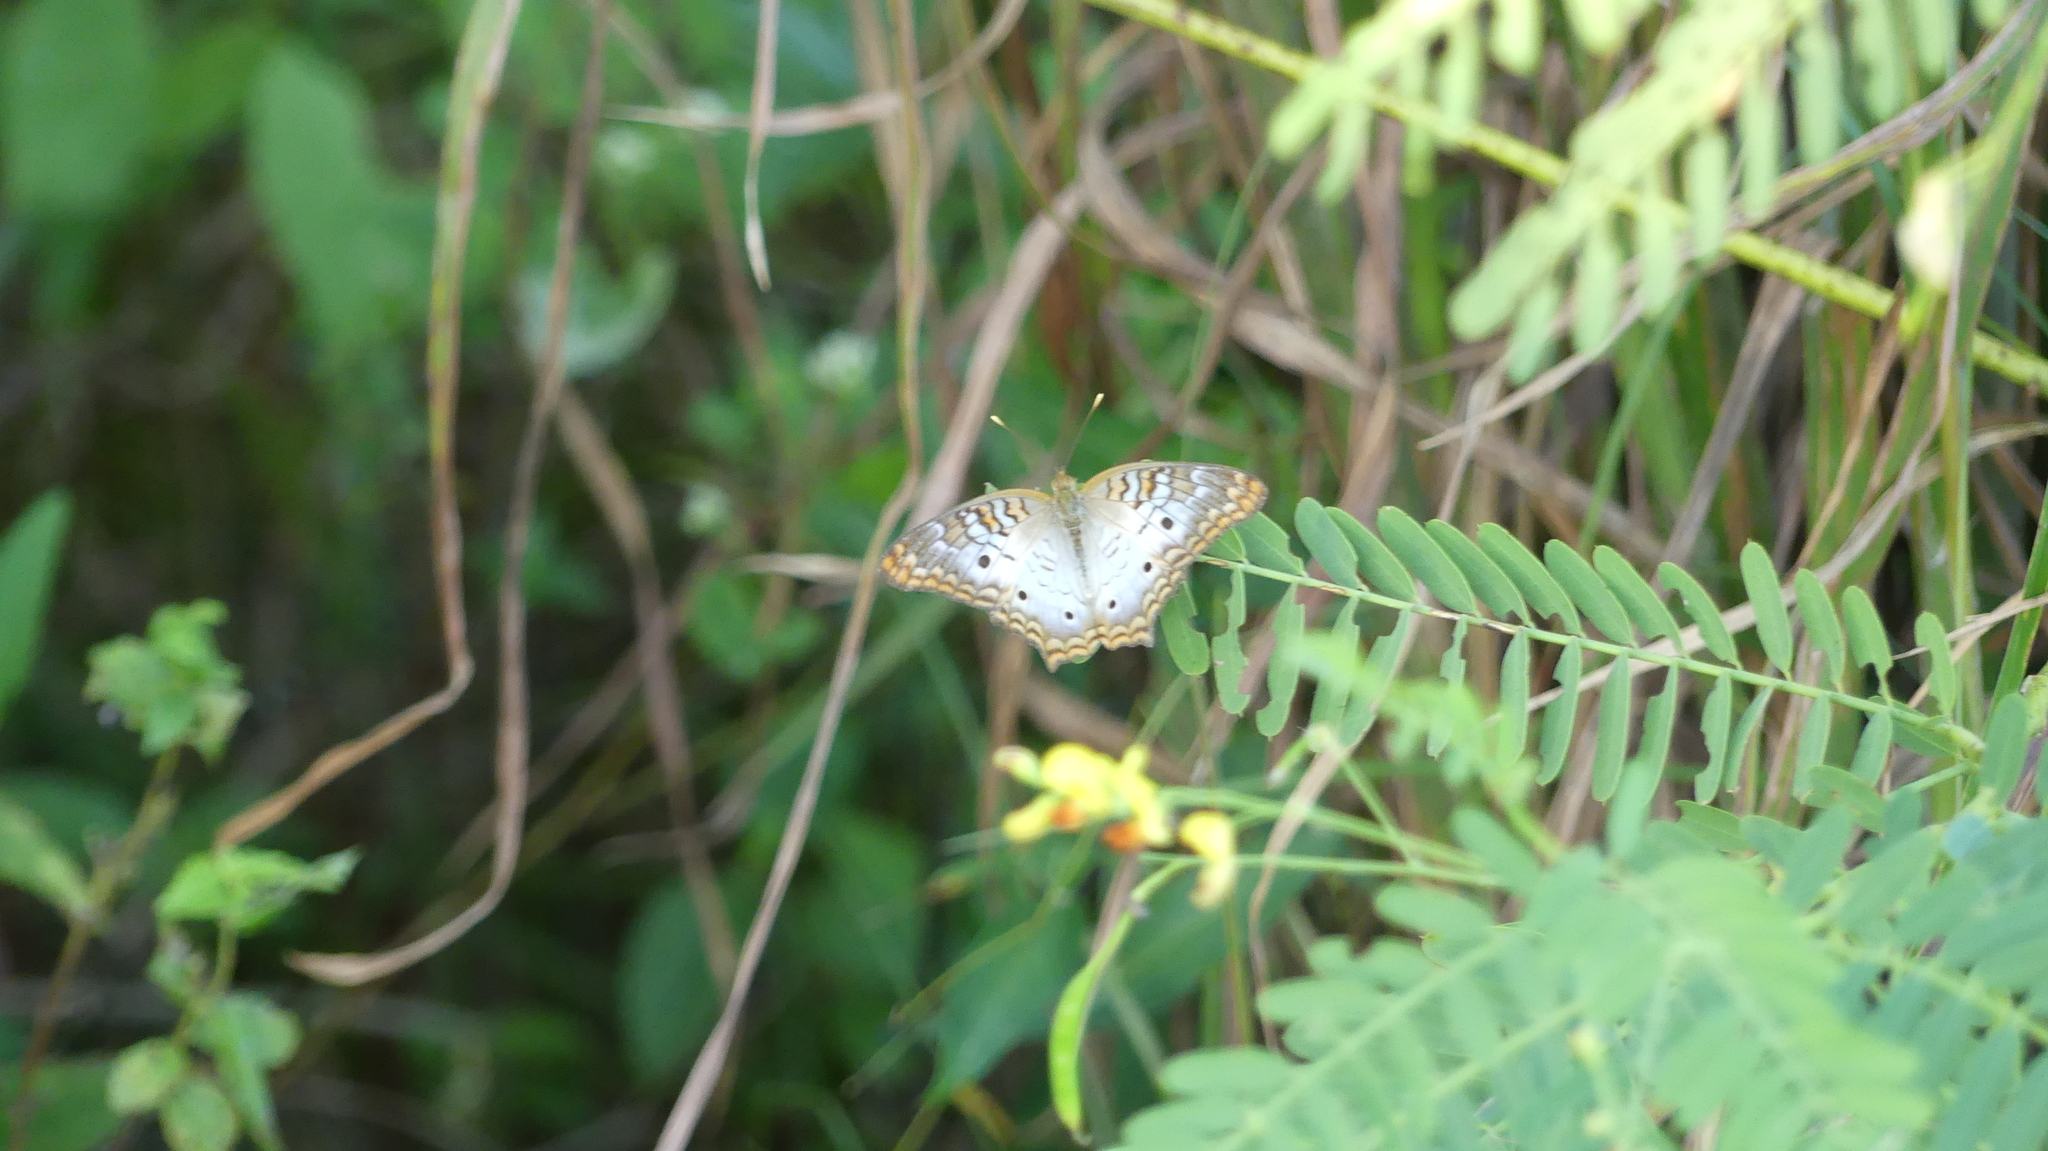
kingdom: Animalia
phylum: Arthropoda
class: Insecta
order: Lepidoptera
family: Nymphalidae
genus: Anartia
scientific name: Anartia jatrophae
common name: White peacock
